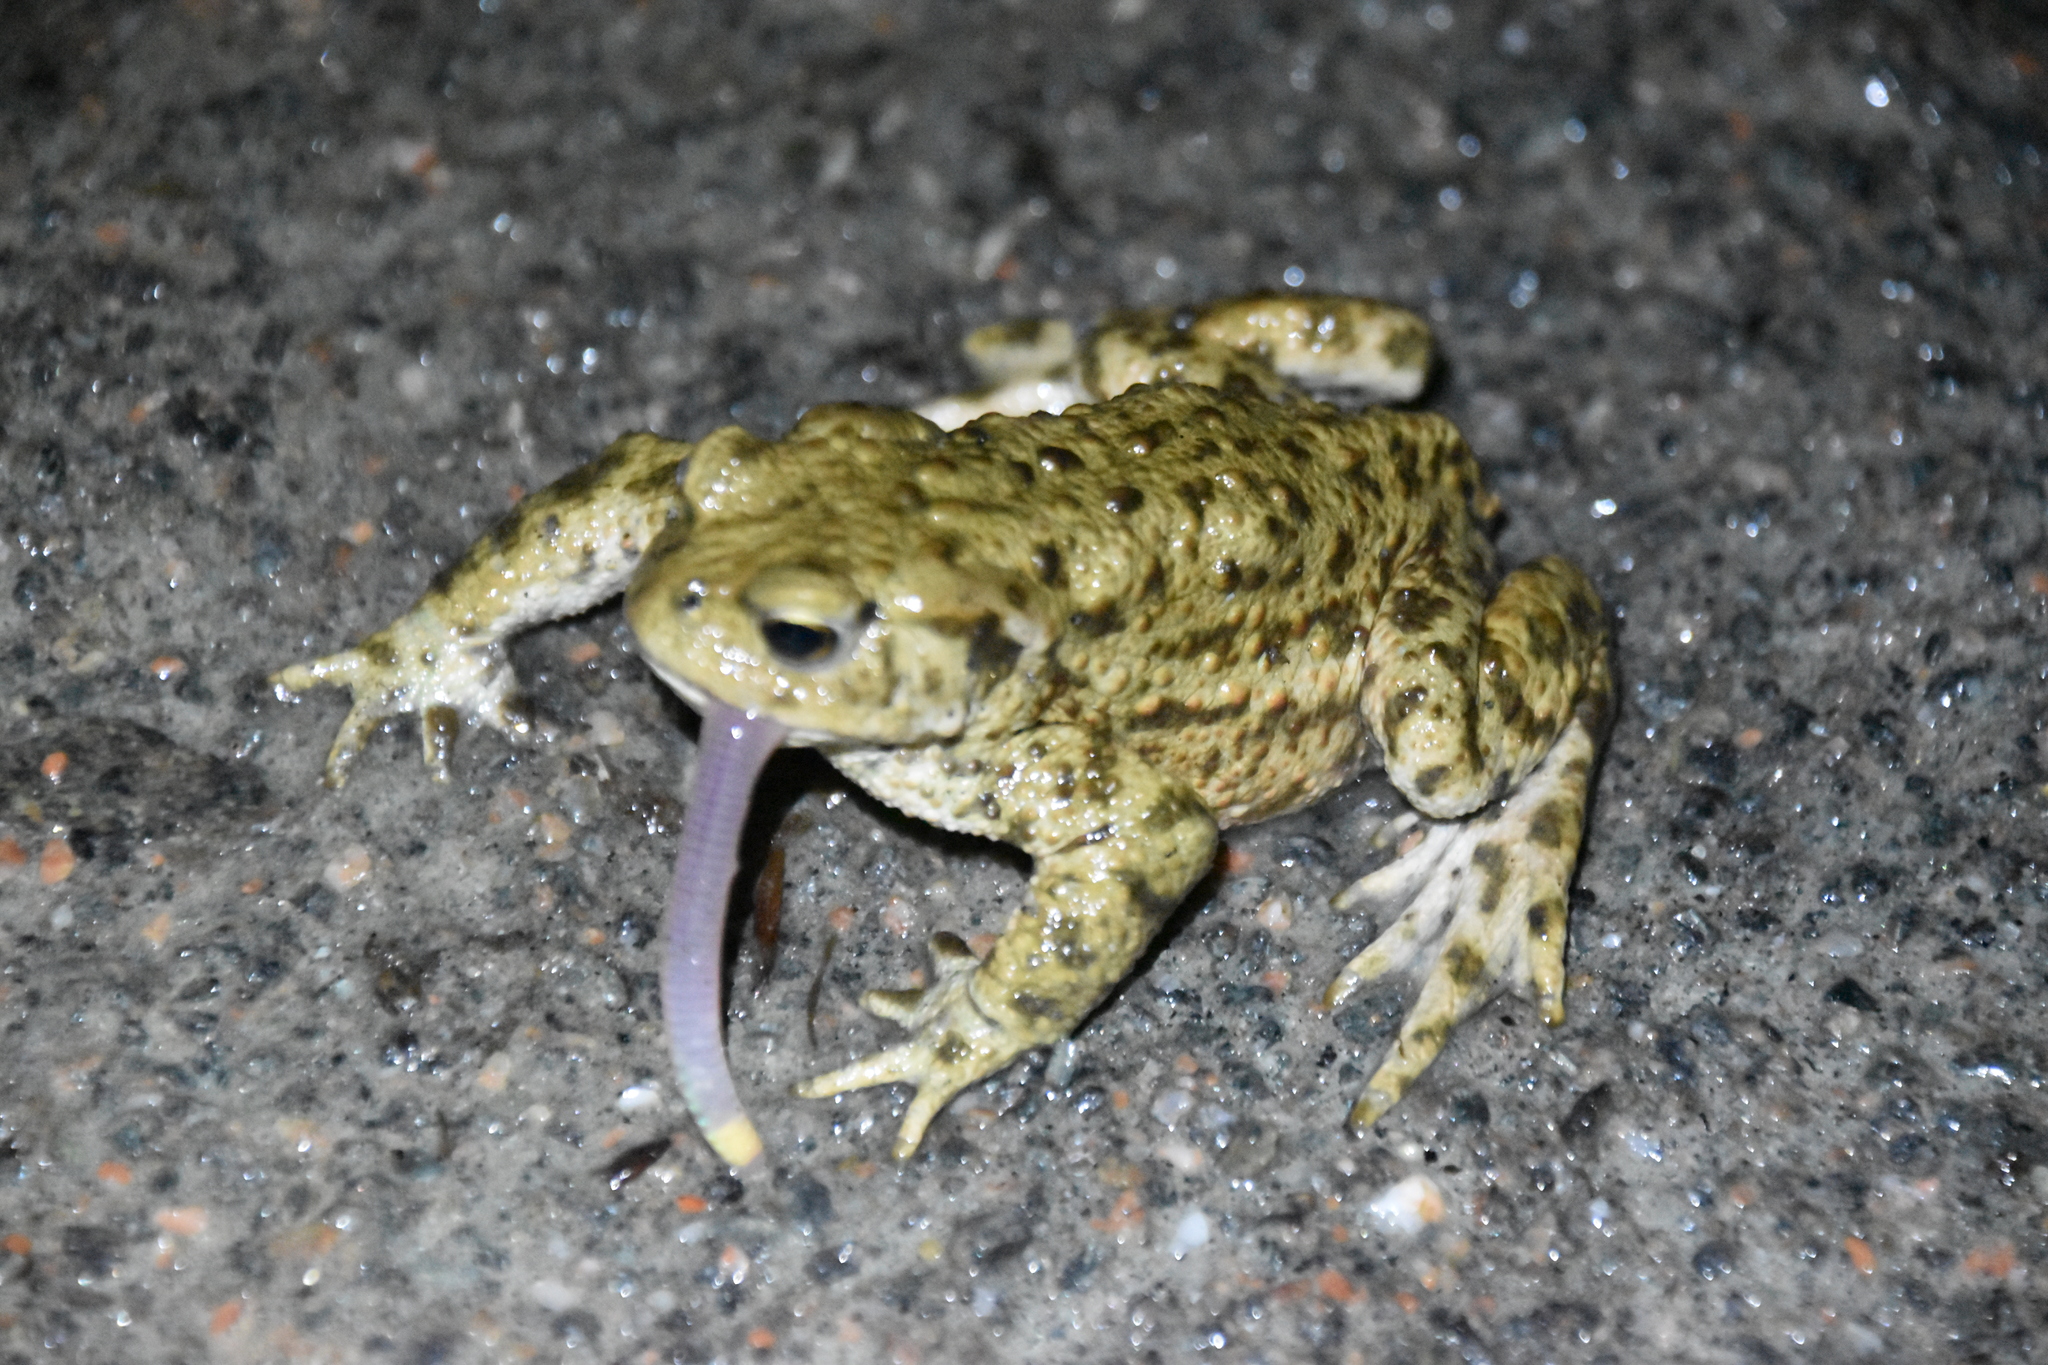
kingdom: Animalia
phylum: Chordata
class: Amphibia
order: Anura
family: Bufonidae
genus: Bufo
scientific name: Bufo bufo
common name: Common toad
